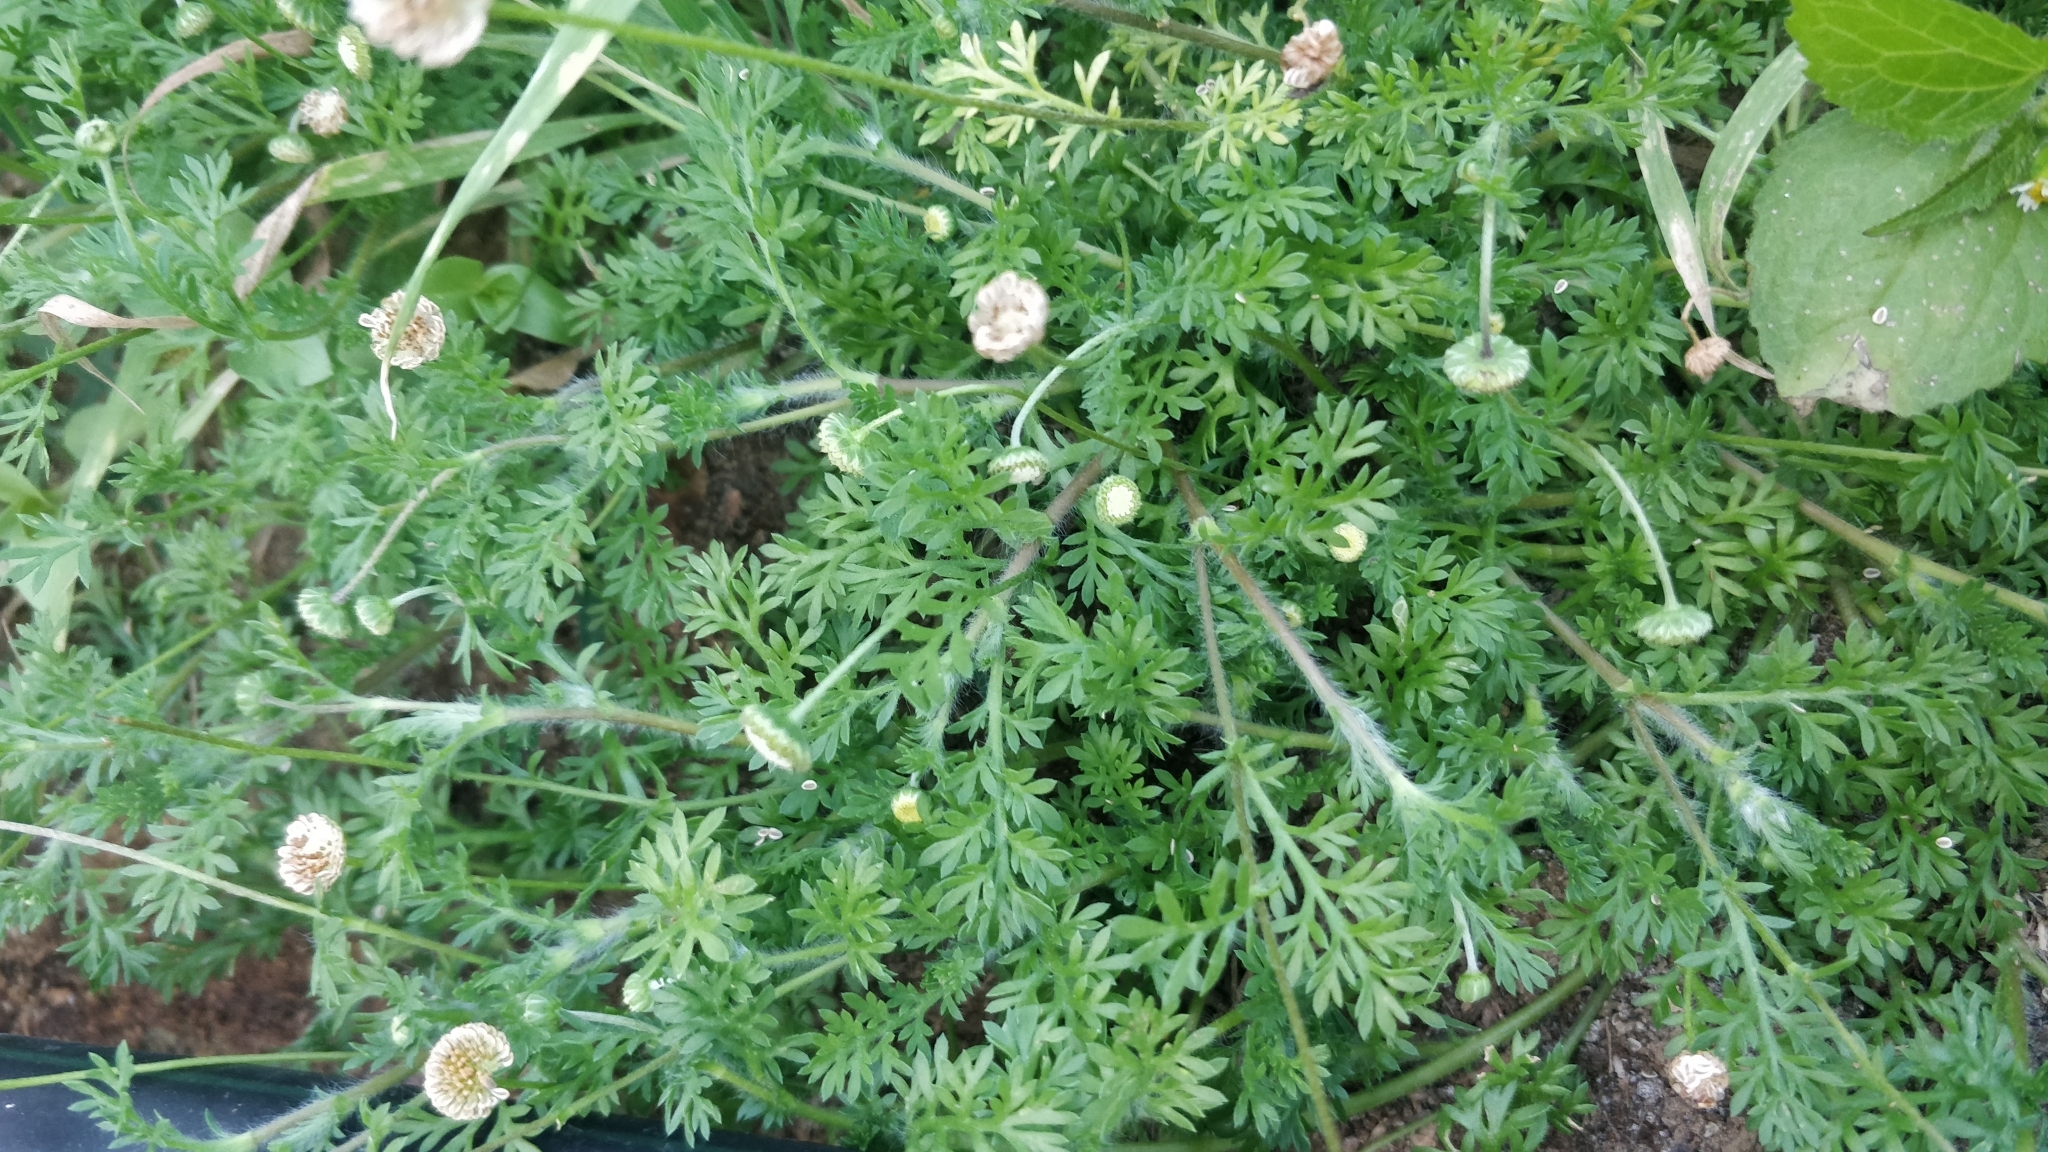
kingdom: Plantae
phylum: Tracheophyta
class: Magnoliopsida
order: Asterales
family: Asteraceae
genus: Cotula
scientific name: Cotula australis
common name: Australian waterbuttons
